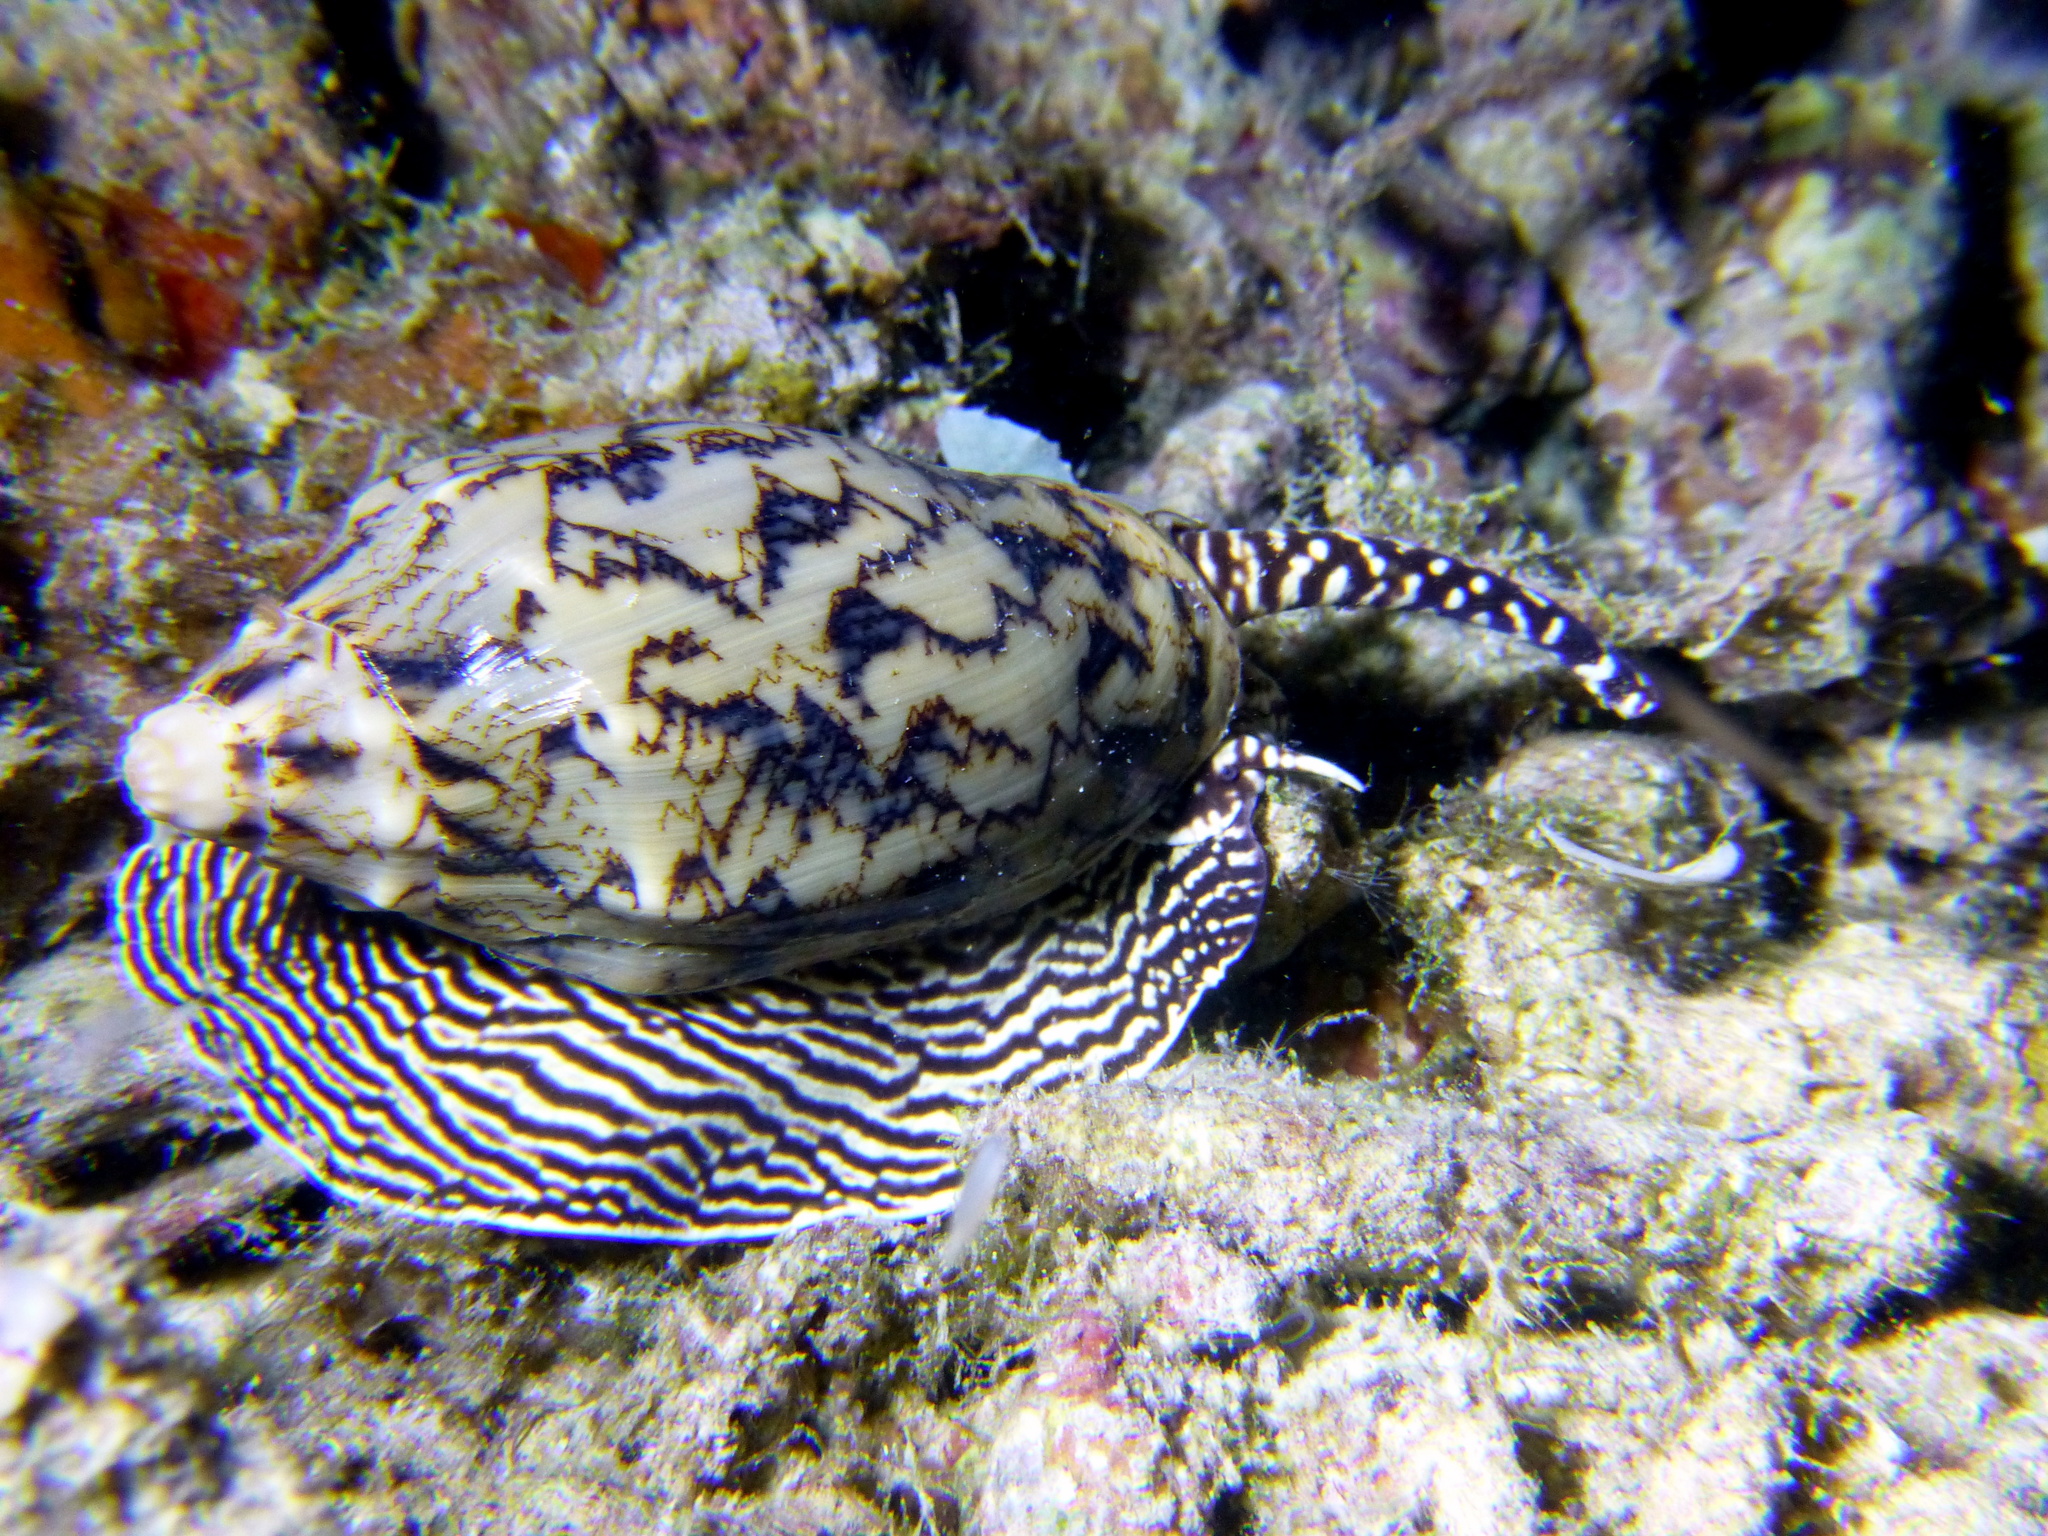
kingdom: Animalia
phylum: Mollusca
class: Gastropoda
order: Neogastropoda
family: Volutidae
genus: Cymbiola
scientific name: Cymbiola vespertilio
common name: Bat volute
